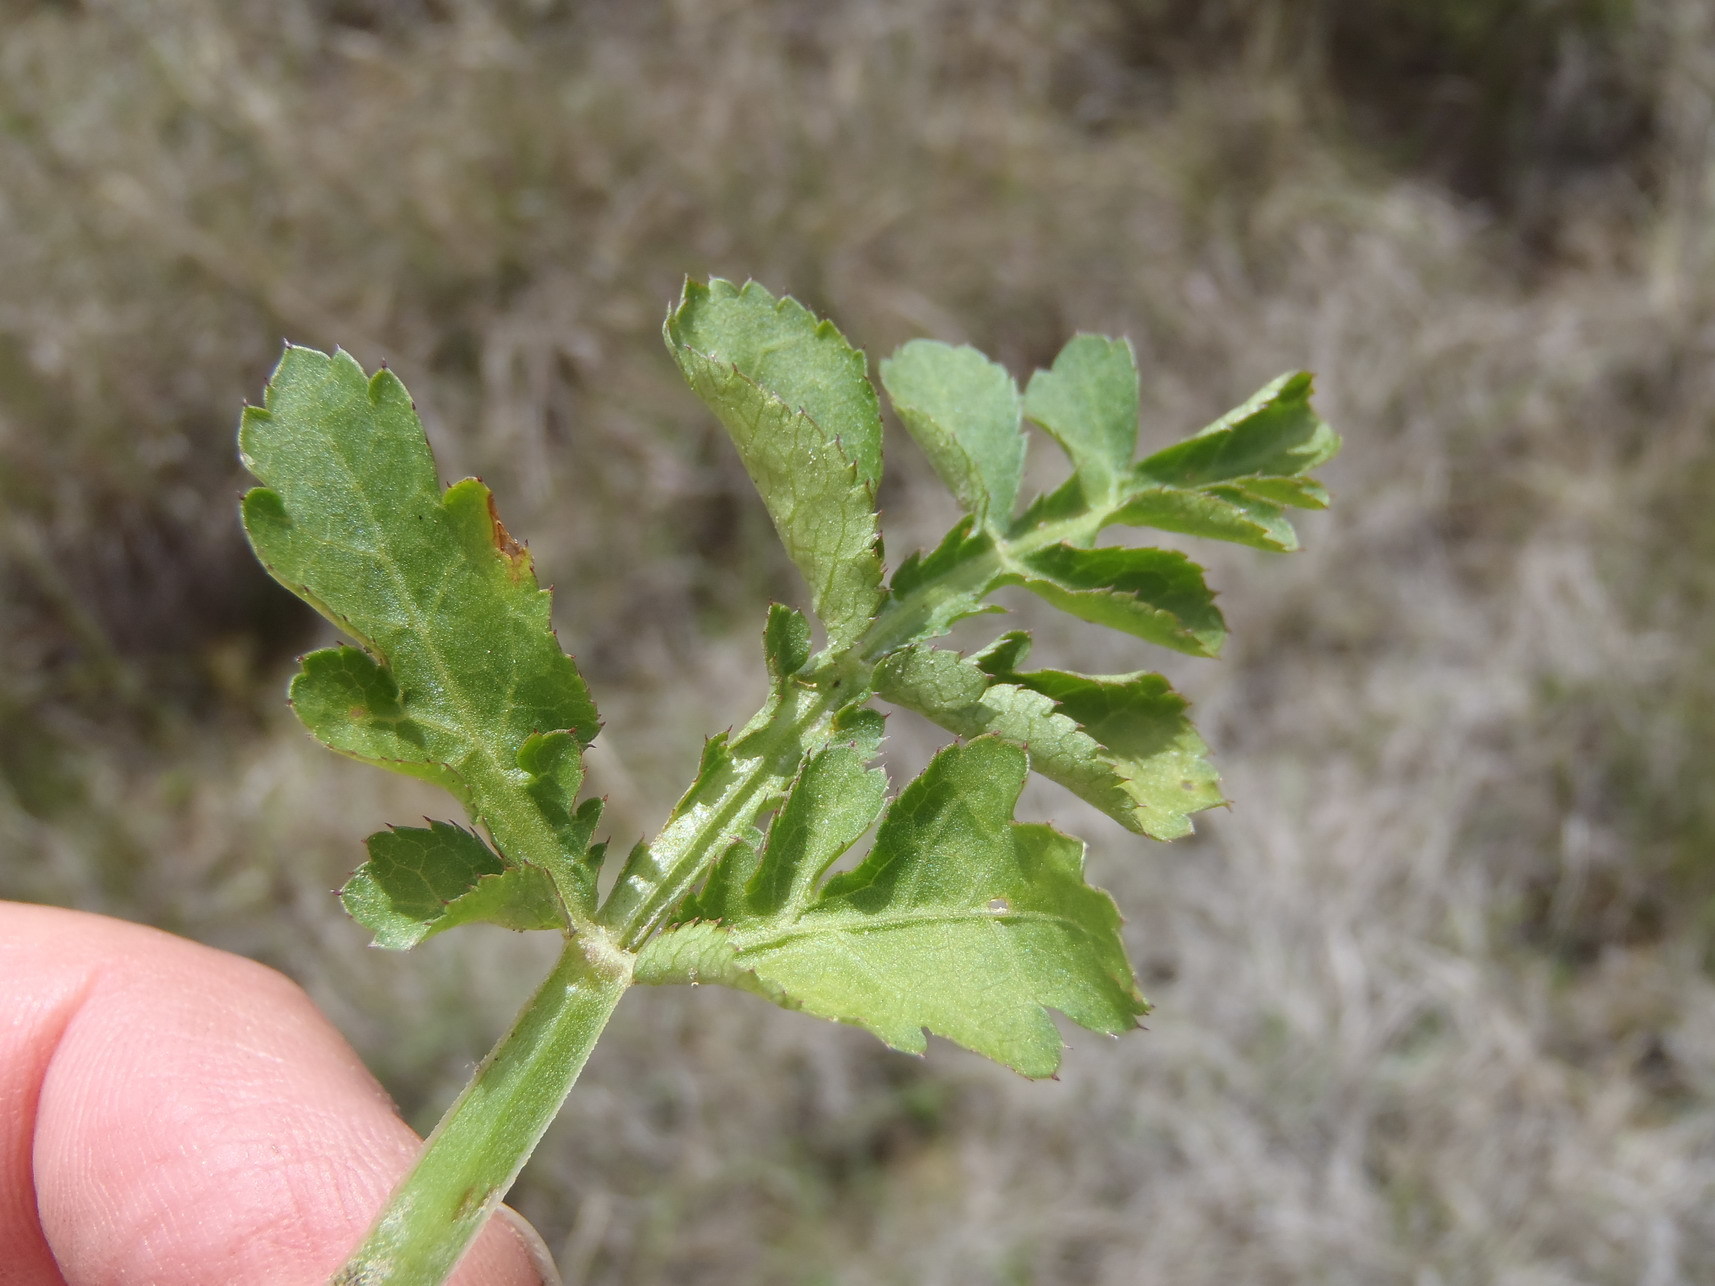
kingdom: Plantae
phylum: Tracheophyta
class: Magnoliopsida
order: Apiales
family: Apiaceae
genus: Lichtensteinia
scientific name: Lichtensteinia interrupta
